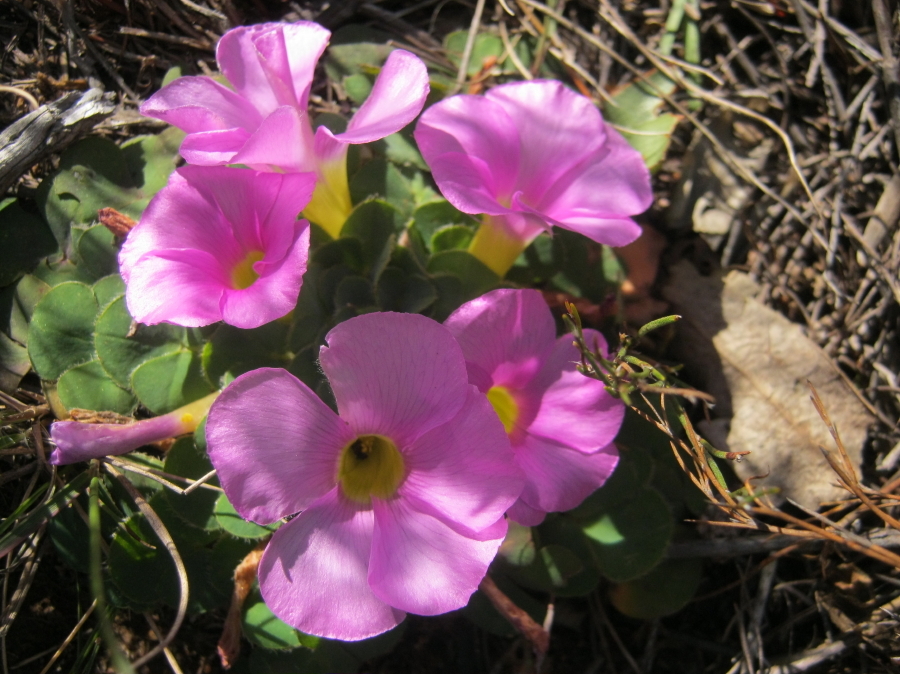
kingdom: Plantae
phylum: Tracheophyta
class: Magnoliopsida
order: Oxalidales
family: Oxalidaceae
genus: Oxalis
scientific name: Oxalis purpurea
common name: Purple woodsorrel
